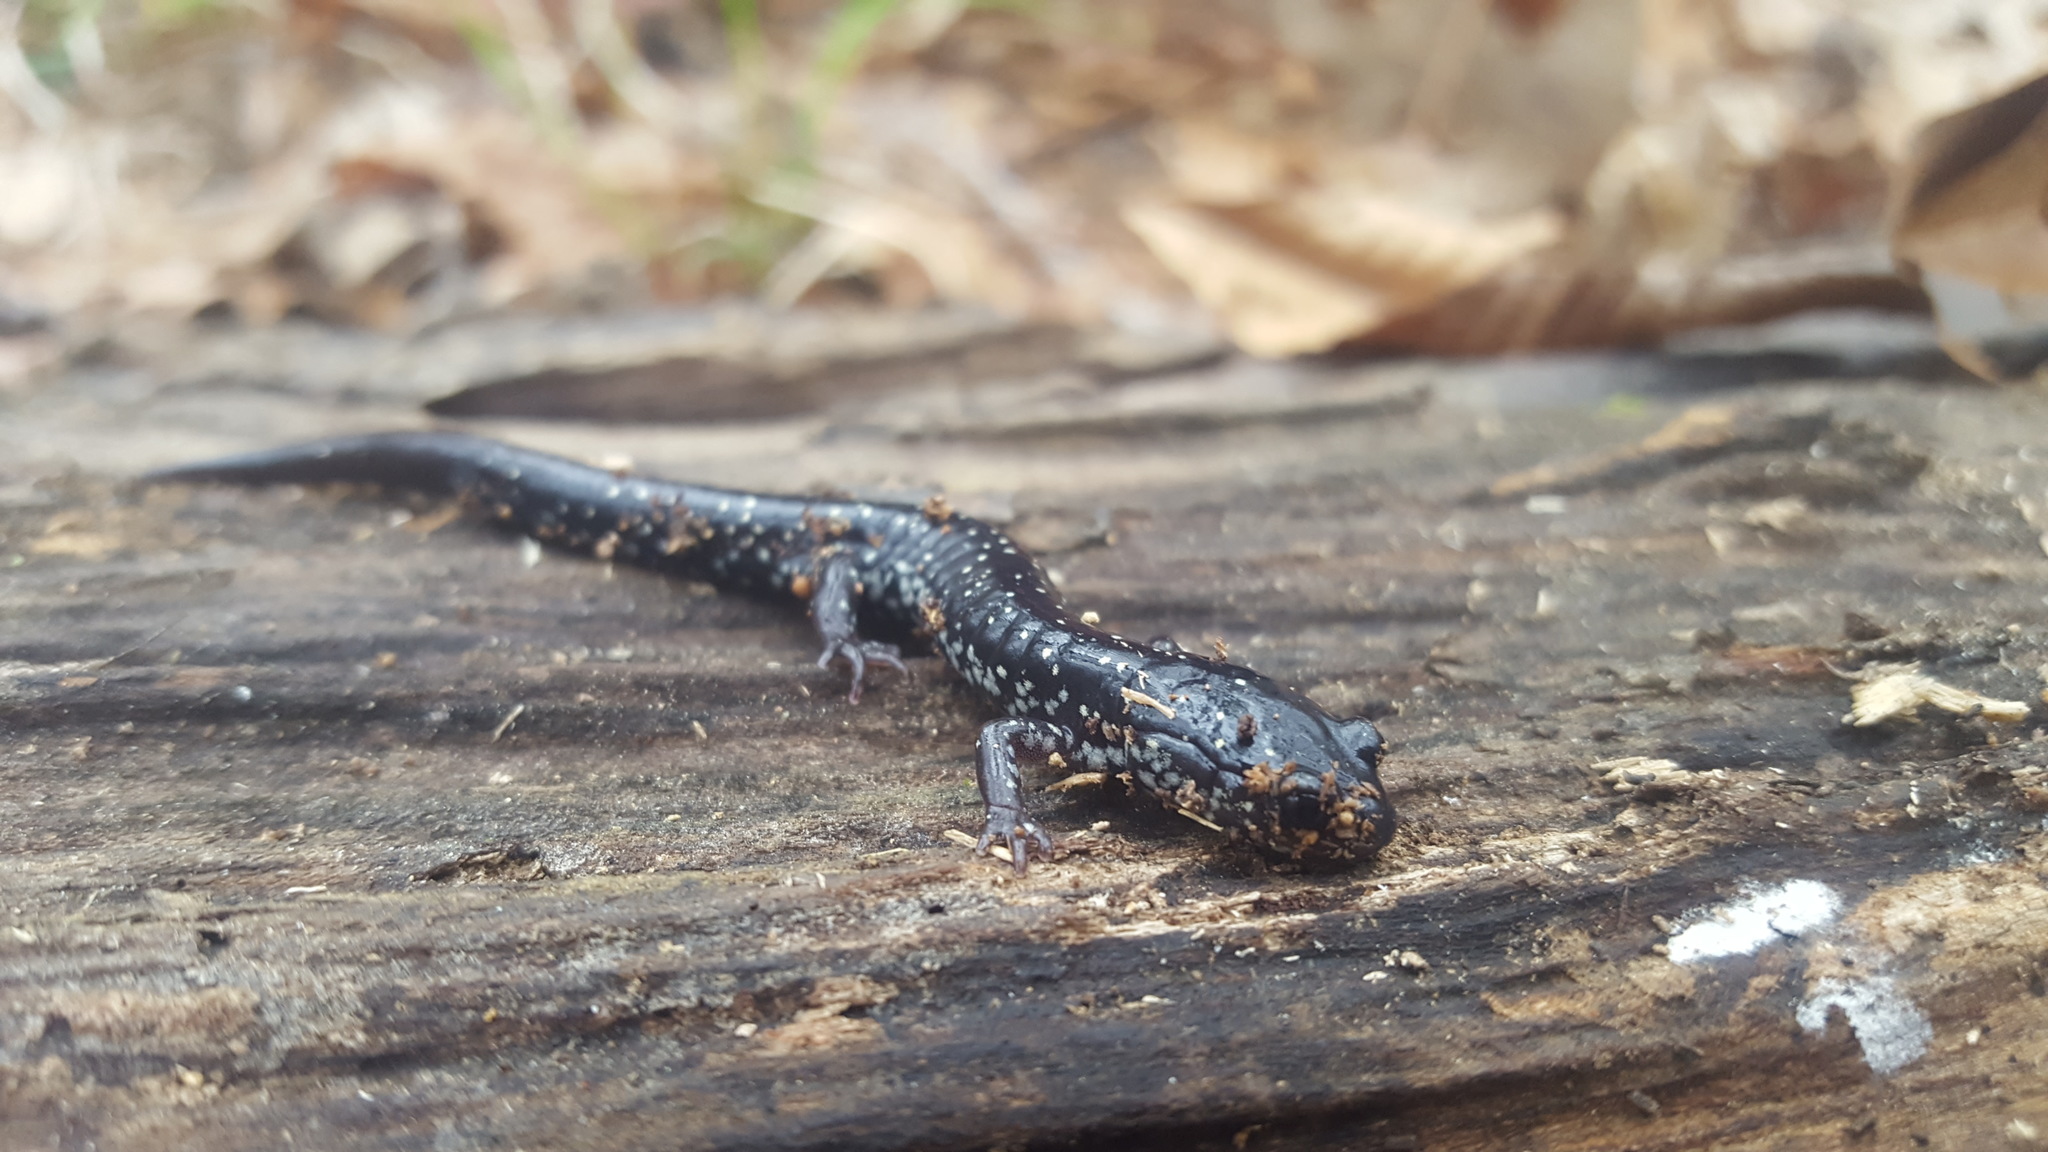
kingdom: Animalia
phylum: Chordata
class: Amphibia
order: Caudata
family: Plethodontidae
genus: Plethodon
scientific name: Plethodon mississippi
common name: Mississippi slimy salamander
